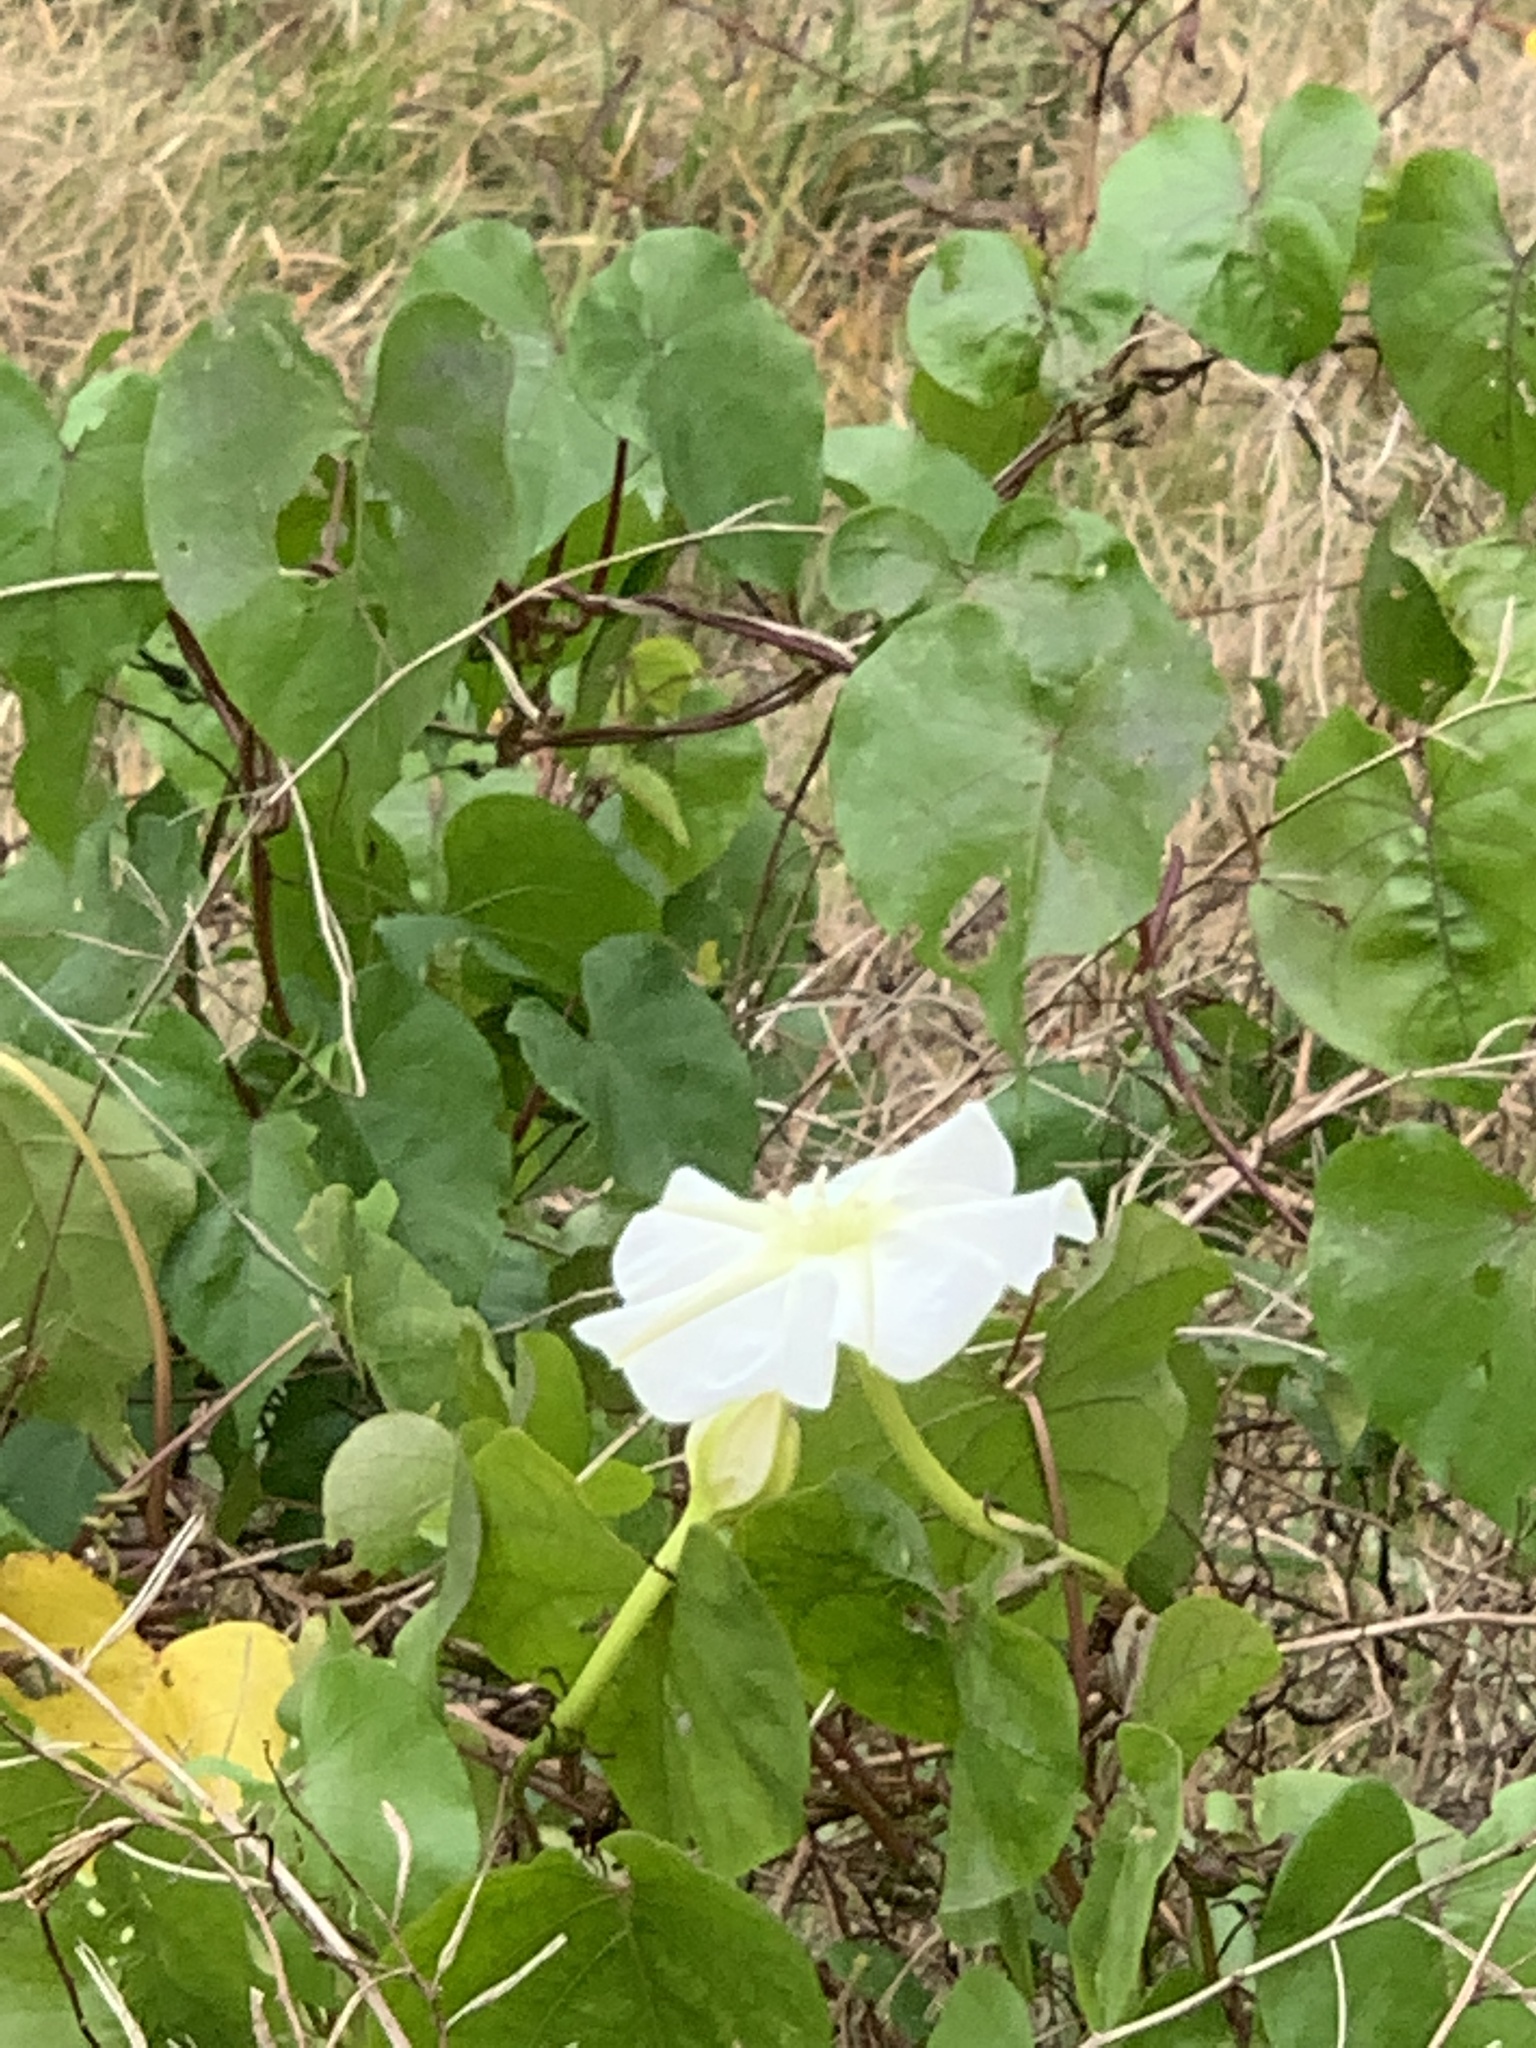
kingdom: Plantae
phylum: Tracheophyta
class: Magnoliopsida
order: Solanales
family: Convolvulaceae
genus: Ipomoea
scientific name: Ipomoea alba
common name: Moonflower
